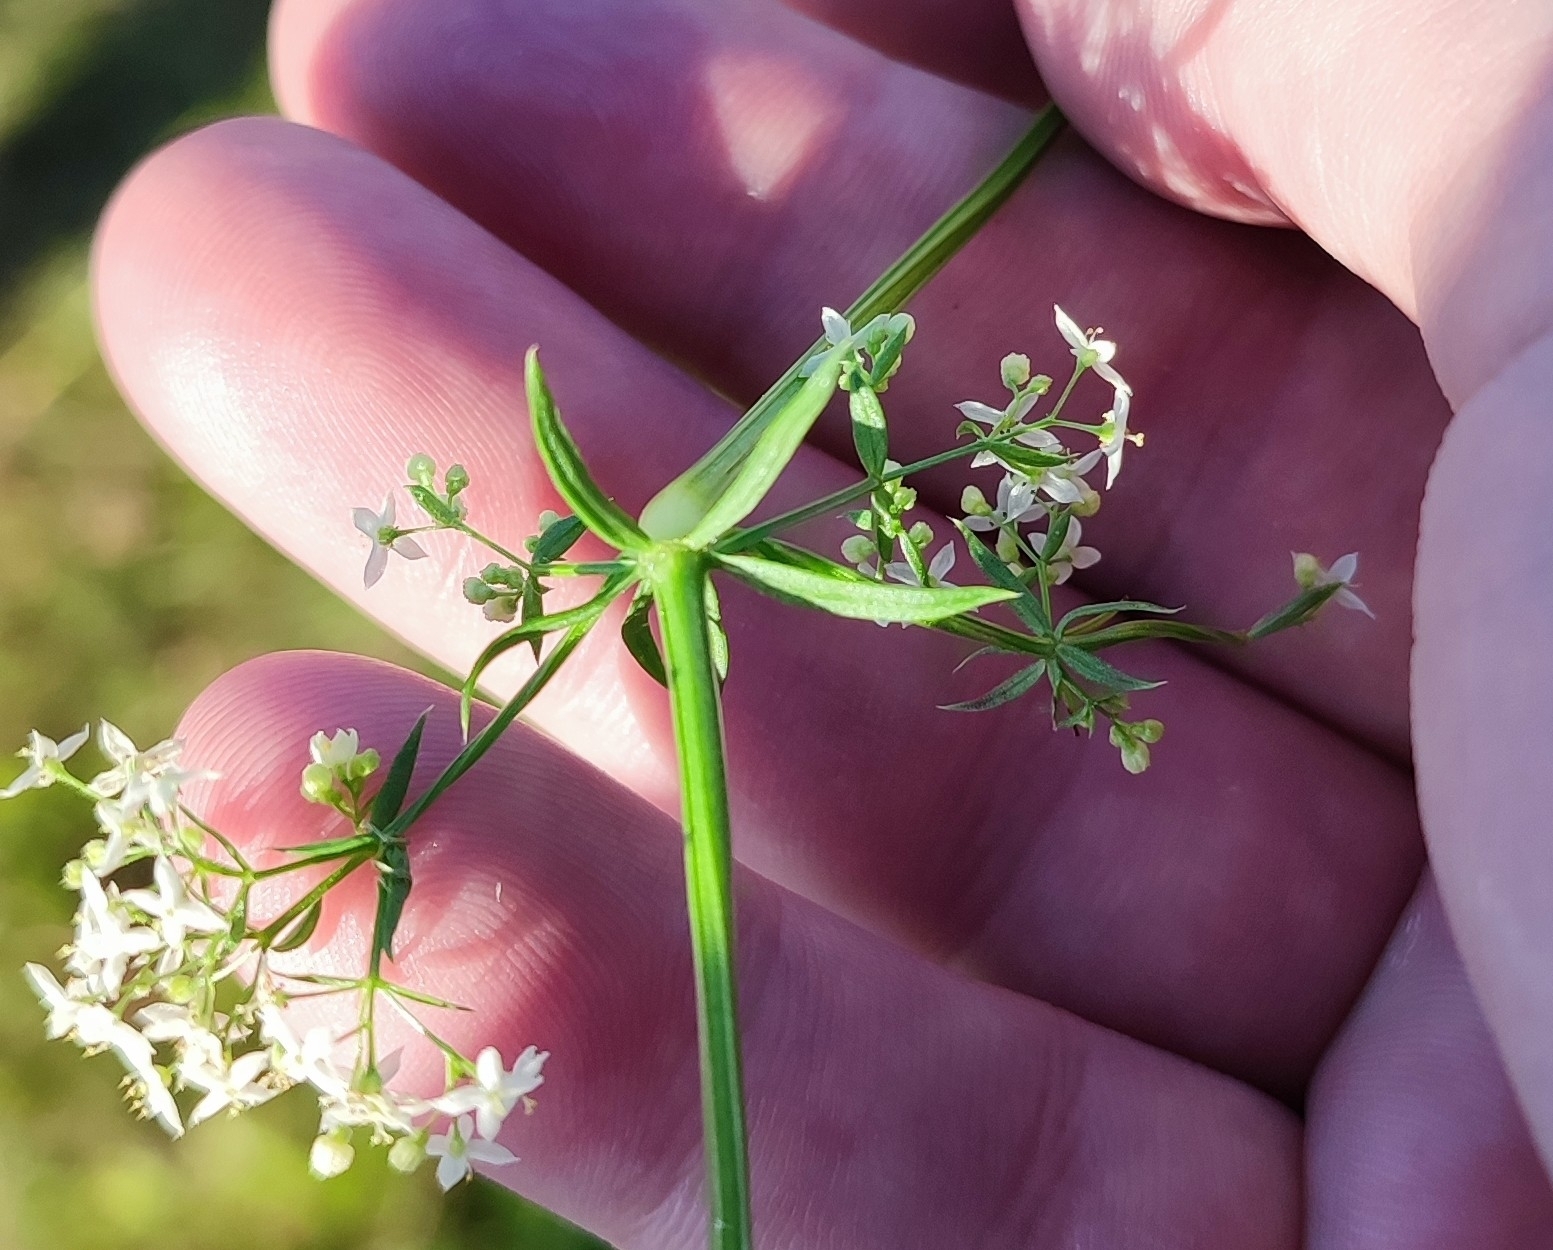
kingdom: Plantae
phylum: Tracheophyta
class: Magnoliopsida
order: Gentianales
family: Rubiaceae
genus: Galium
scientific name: Galium mollugo
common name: Hedge bedstraw
